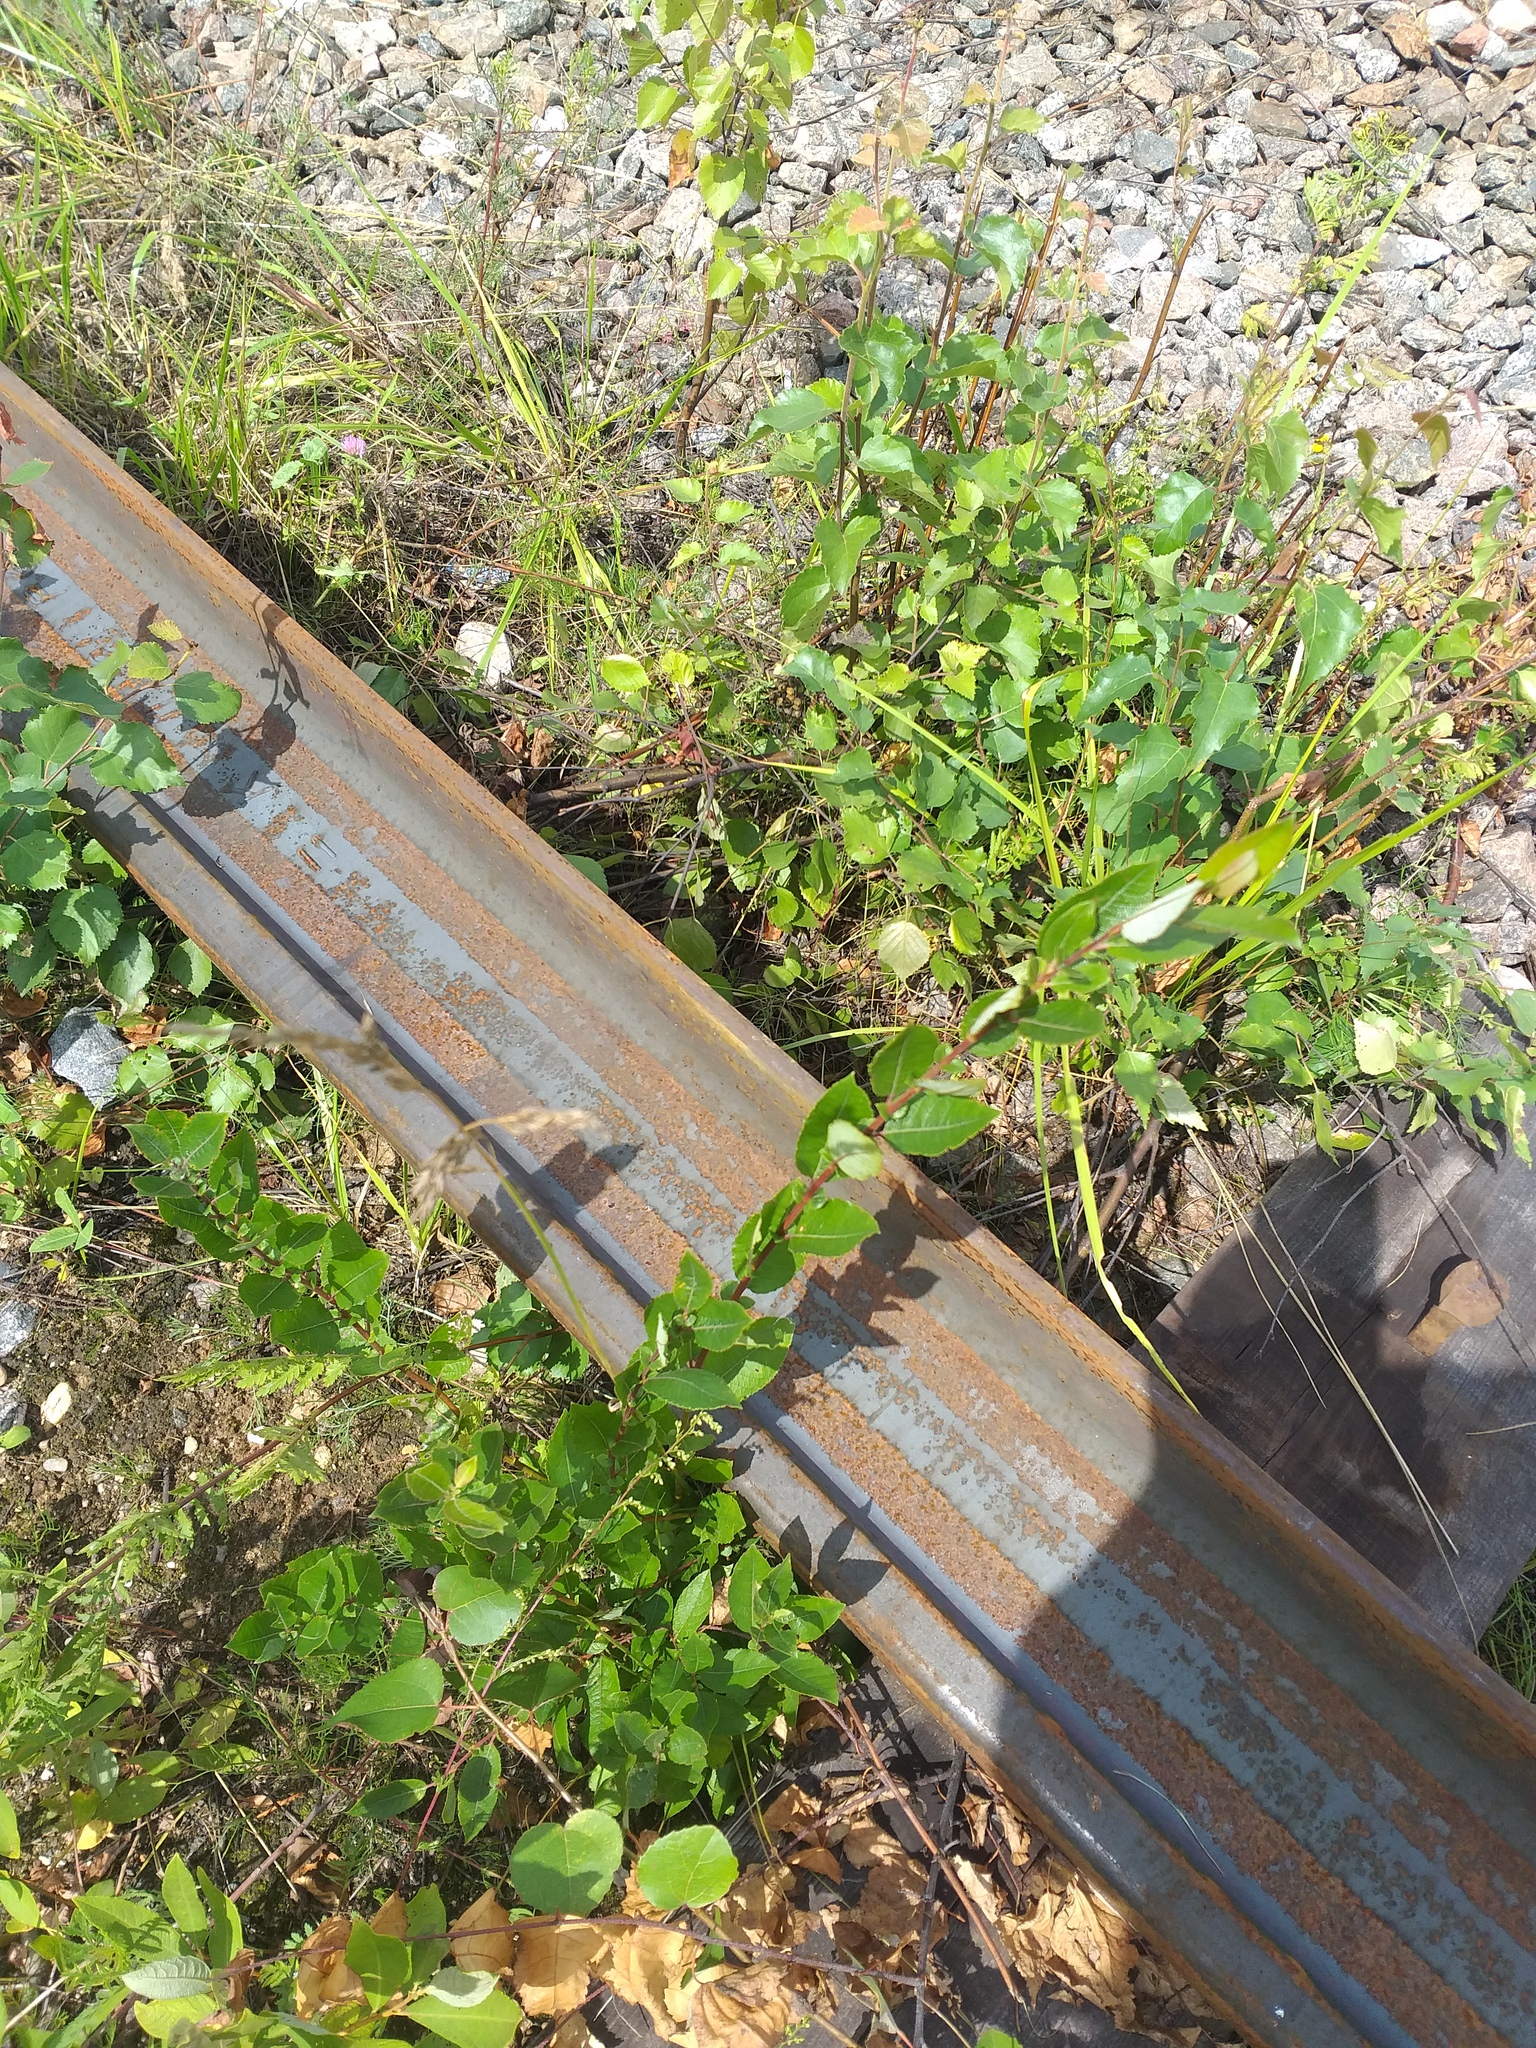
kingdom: Plantae
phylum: Tracheophyta
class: Magnoliopsida
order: Malpighiales
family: Salicaceae
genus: Salix
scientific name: Salix myrsinifolia
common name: Dark-leaved willow
